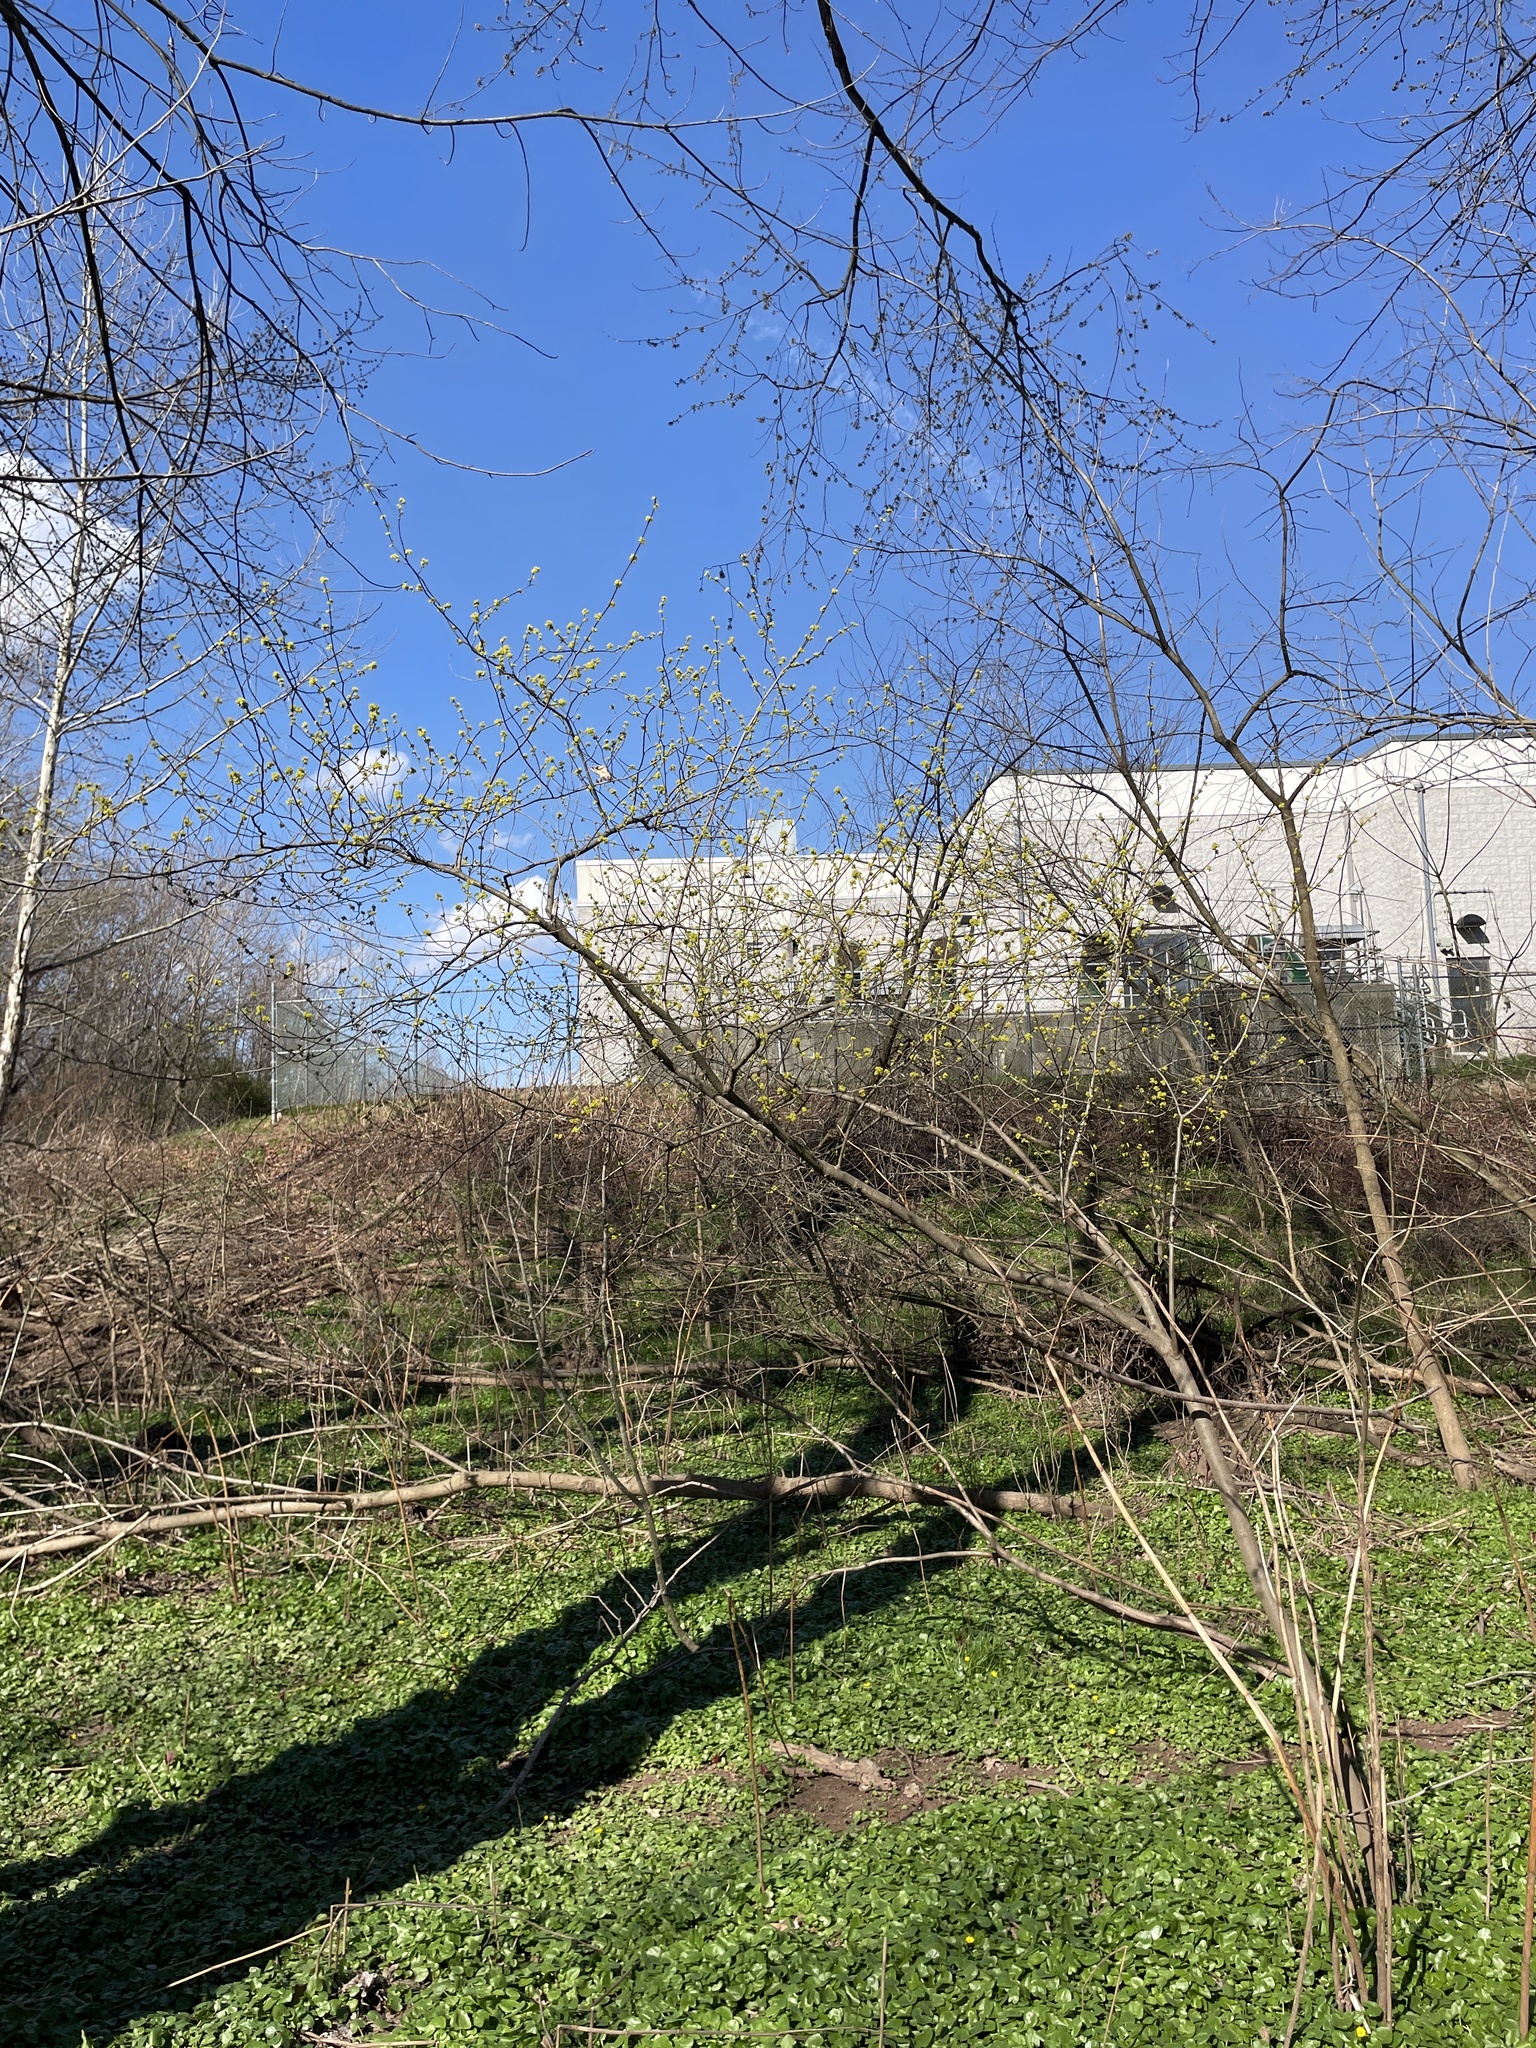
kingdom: Plantae
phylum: Tracheophyta
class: Magnoliopsida
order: Laurales
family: Lauraceae
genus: Lindera
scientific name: Lindera benzoin
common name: Spicebush
